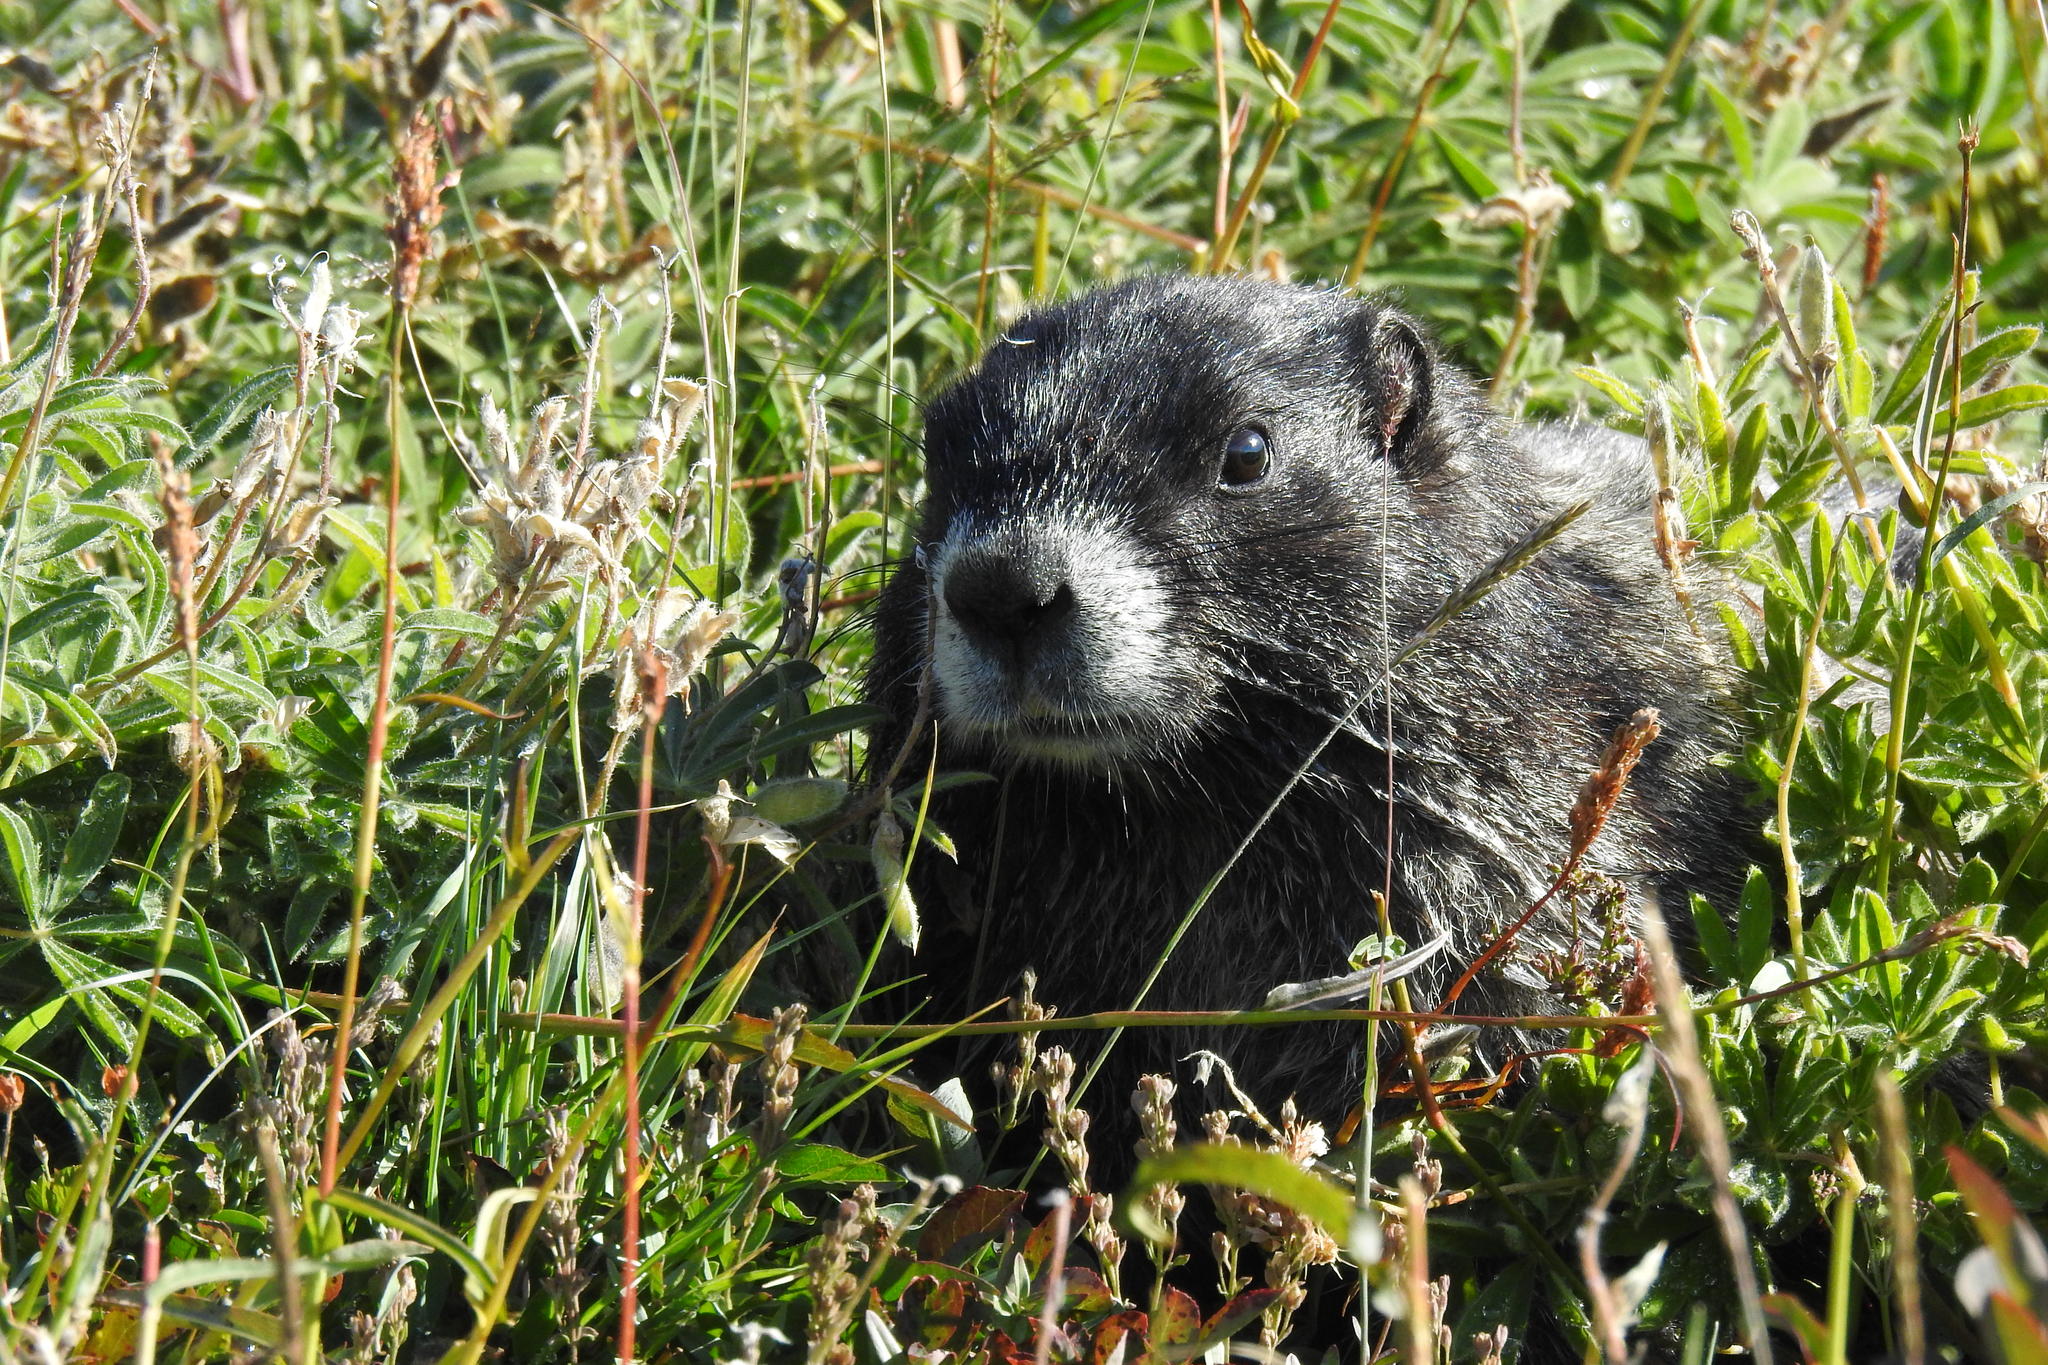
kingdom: Animalia
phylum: Chordata
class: Mammalia
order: Rodentia
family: Sciuridae
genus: Marmota
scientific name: Marmota caligata
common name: Hoary marmot
